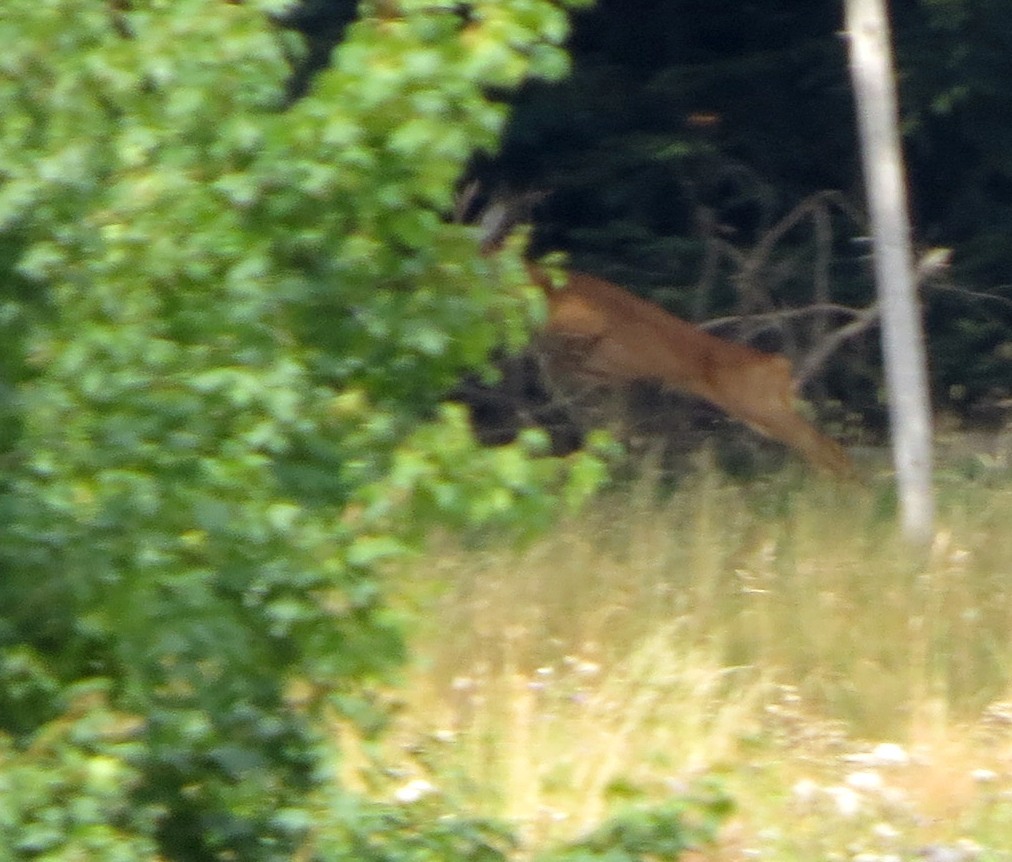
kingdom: Animalia
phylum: Chordata
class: Mammalia
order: Artiodactyla
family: Cervidae
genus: Capreolus
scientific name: Capreolus capreolus
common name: Western roe deer
